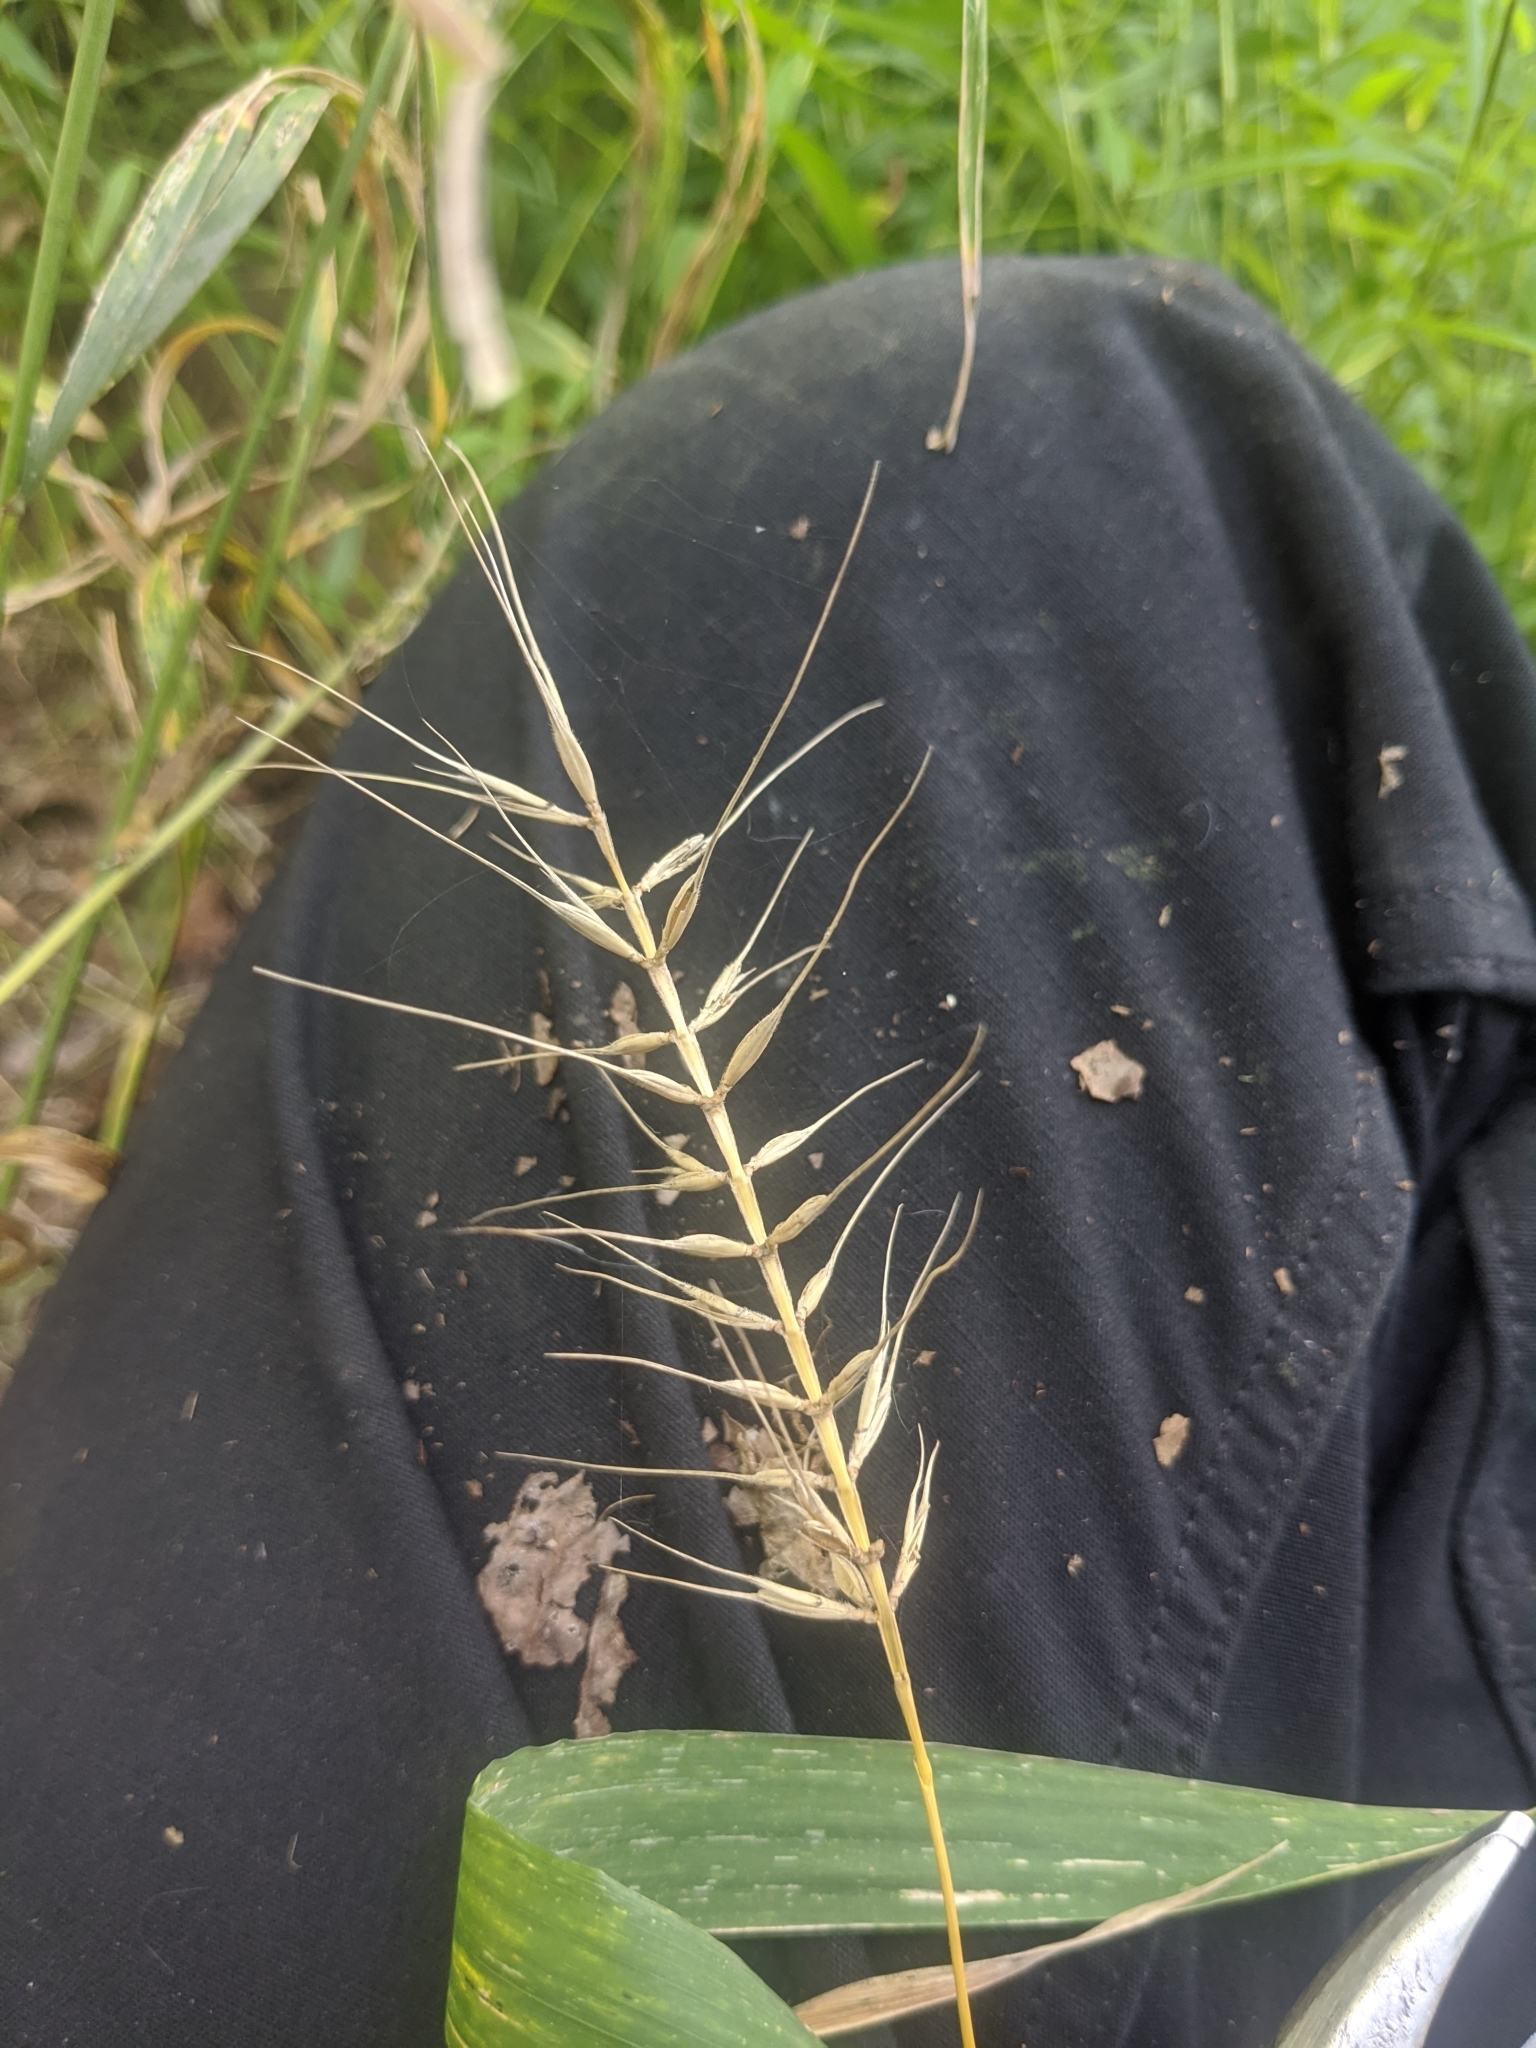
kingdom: Plantae
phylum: Tracheophyta
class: Liliopsida
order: Poales
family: Poaceae
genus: Elymus
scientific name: Elymus hystrix
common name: Bottlebrush grass
